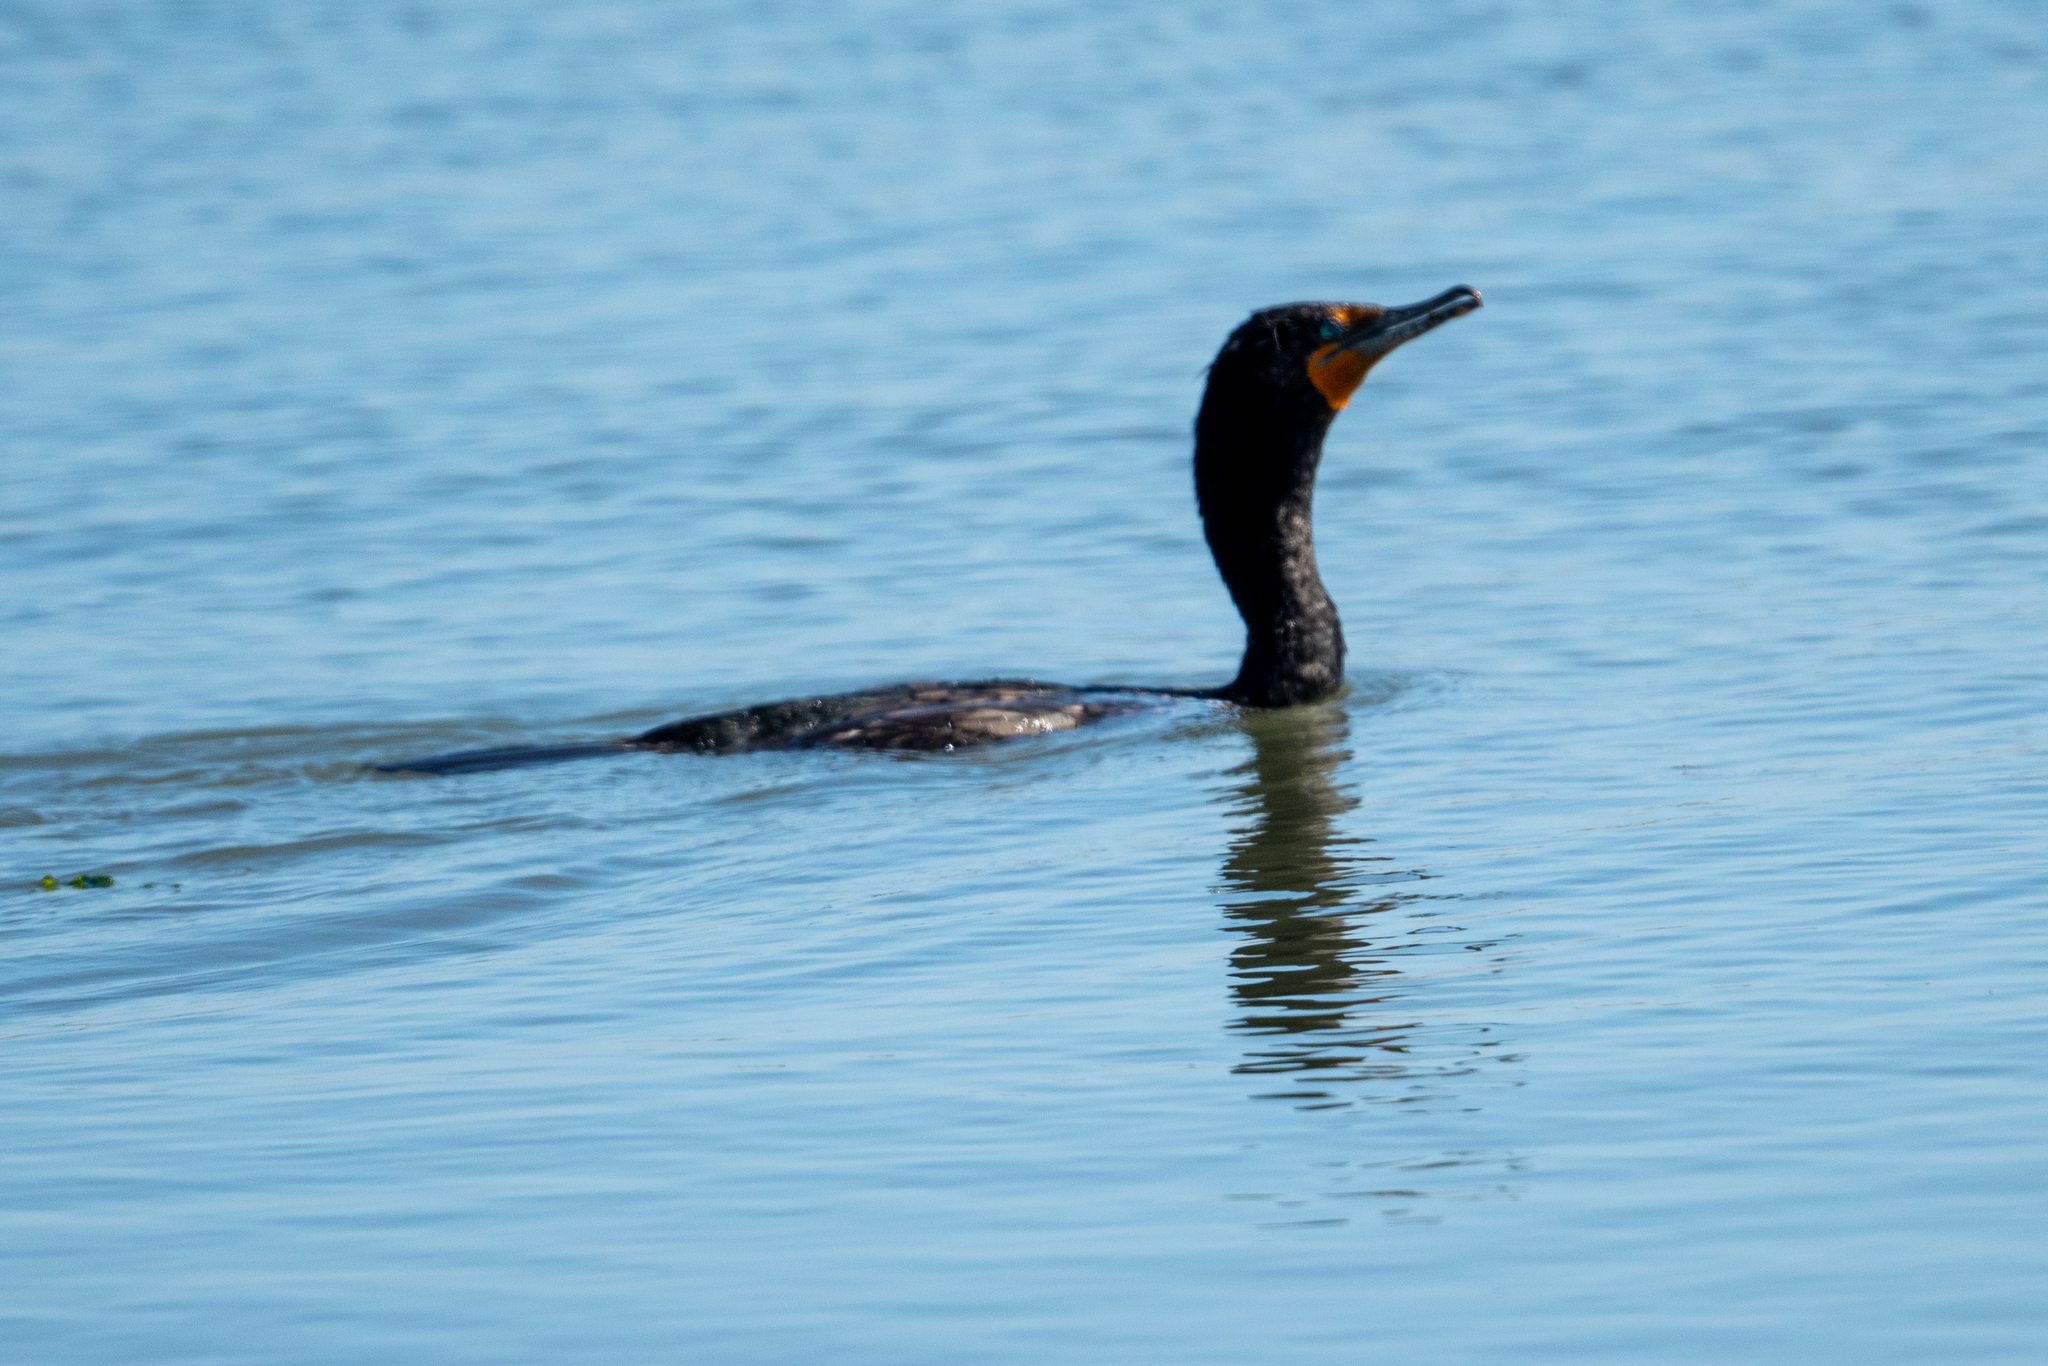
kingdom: Animalia
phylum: Chordata
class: Aves
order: Suliformes
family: Phalacrocoracidae
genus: Phalacrocorax
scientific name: Phalacrocorax auritus
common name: Double-crested cormorant
